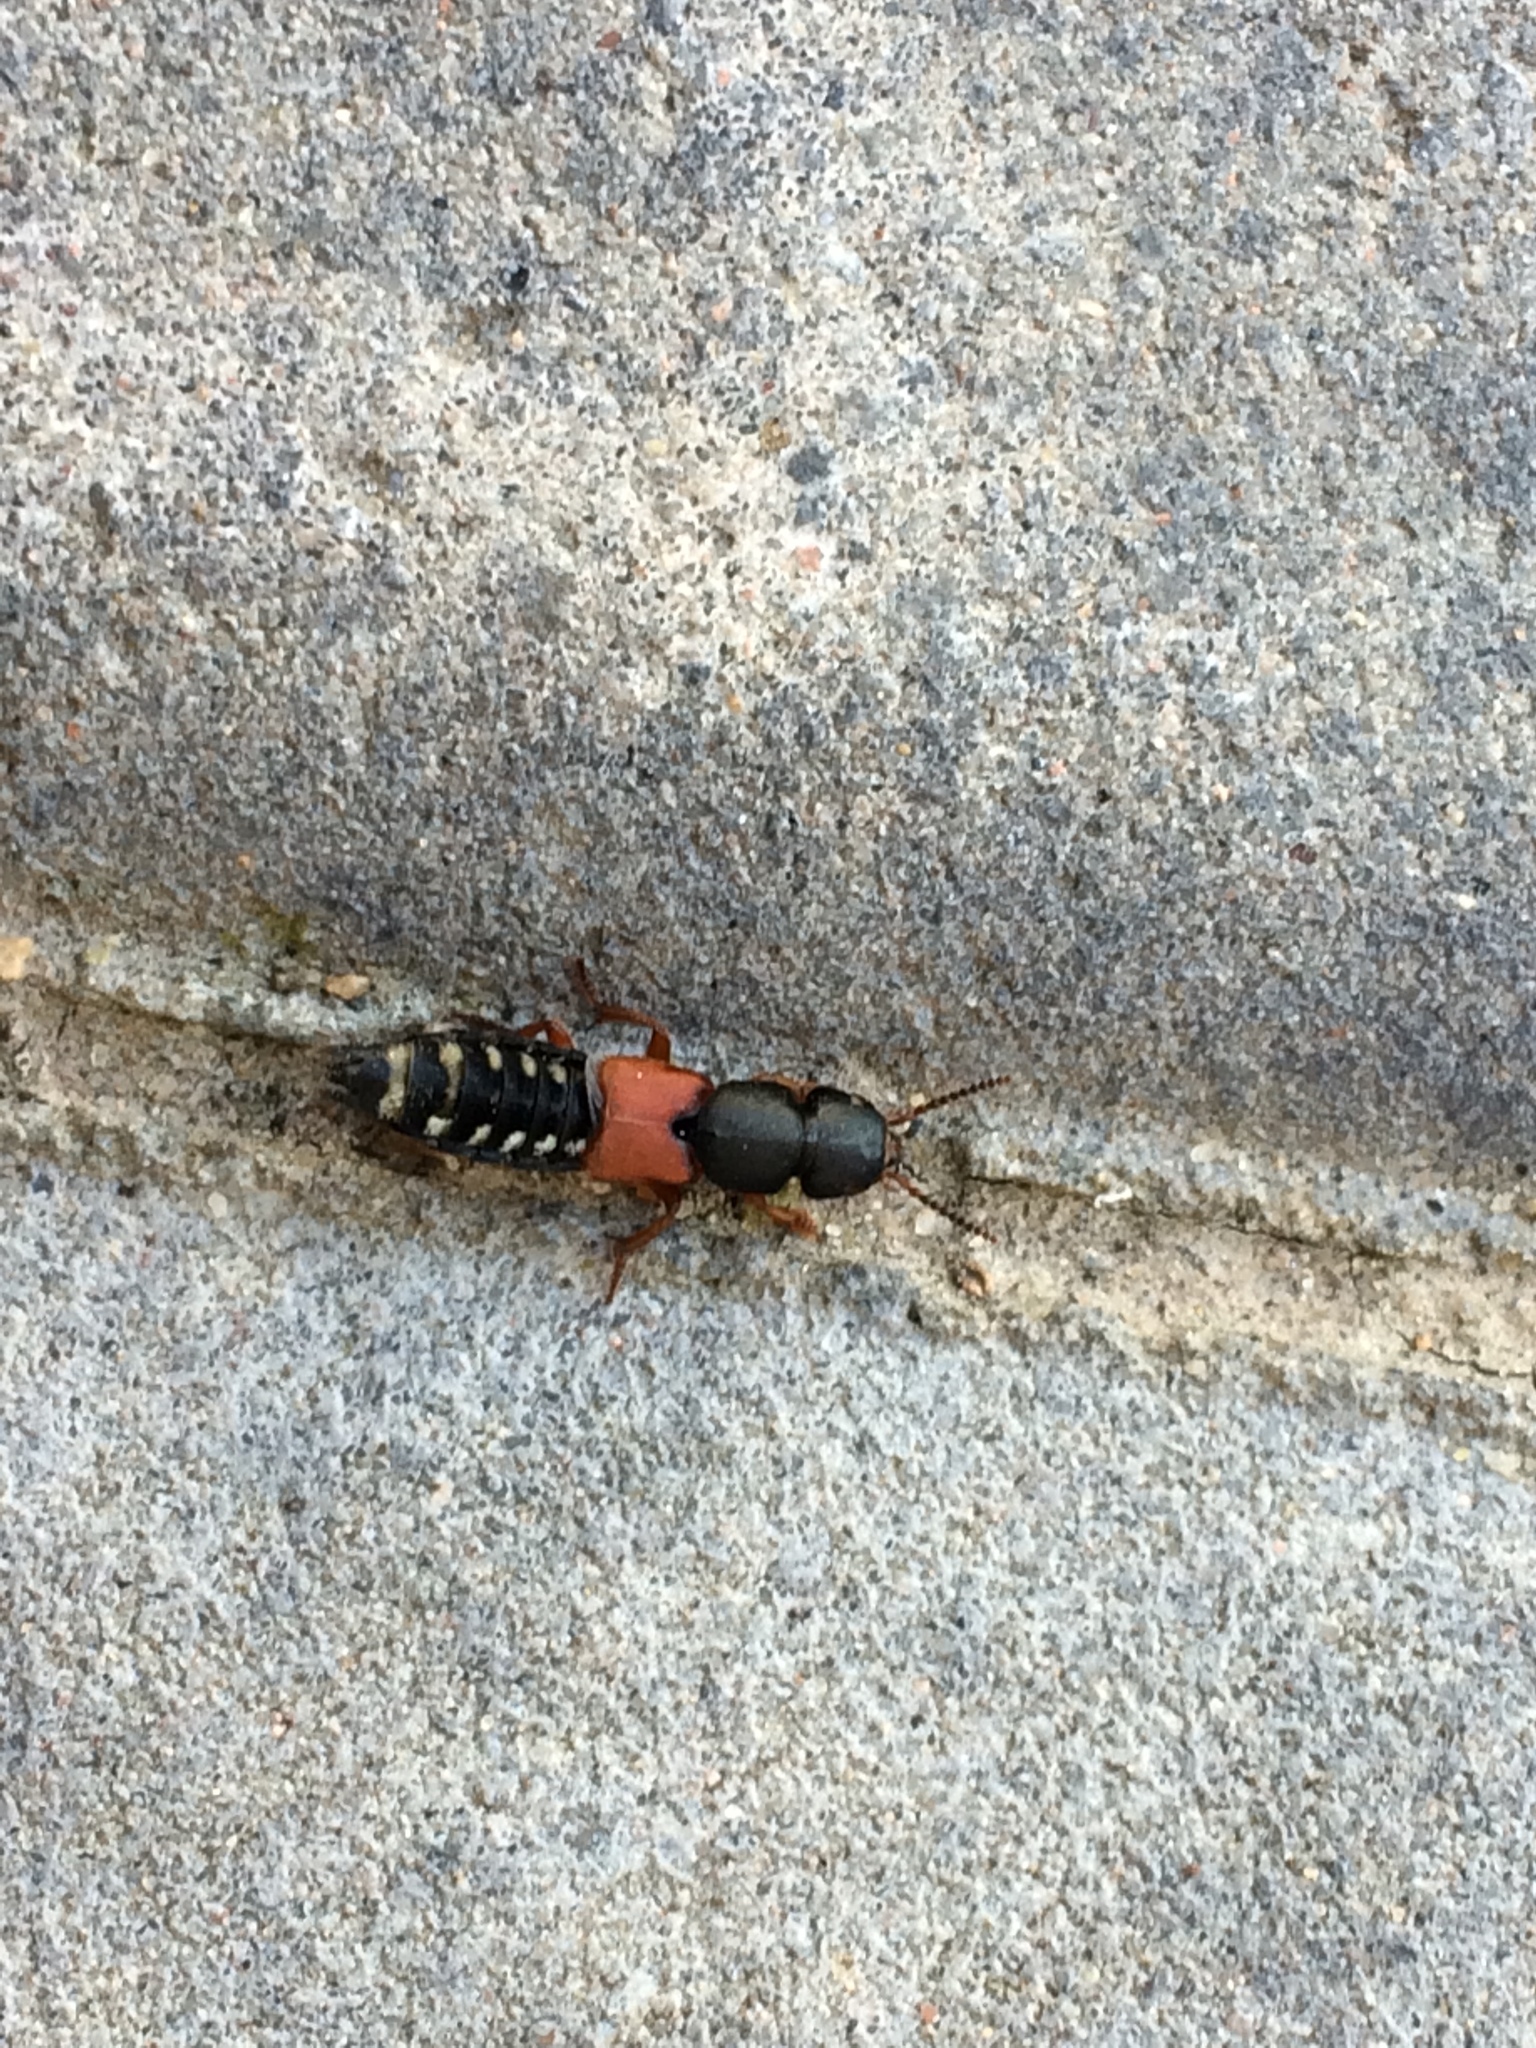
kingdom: Animalia
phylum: Arthropoda
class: Insecta
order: Coleoptera
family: Staphylinidae
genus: Platydracus
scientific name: Platydracus stercorarius
